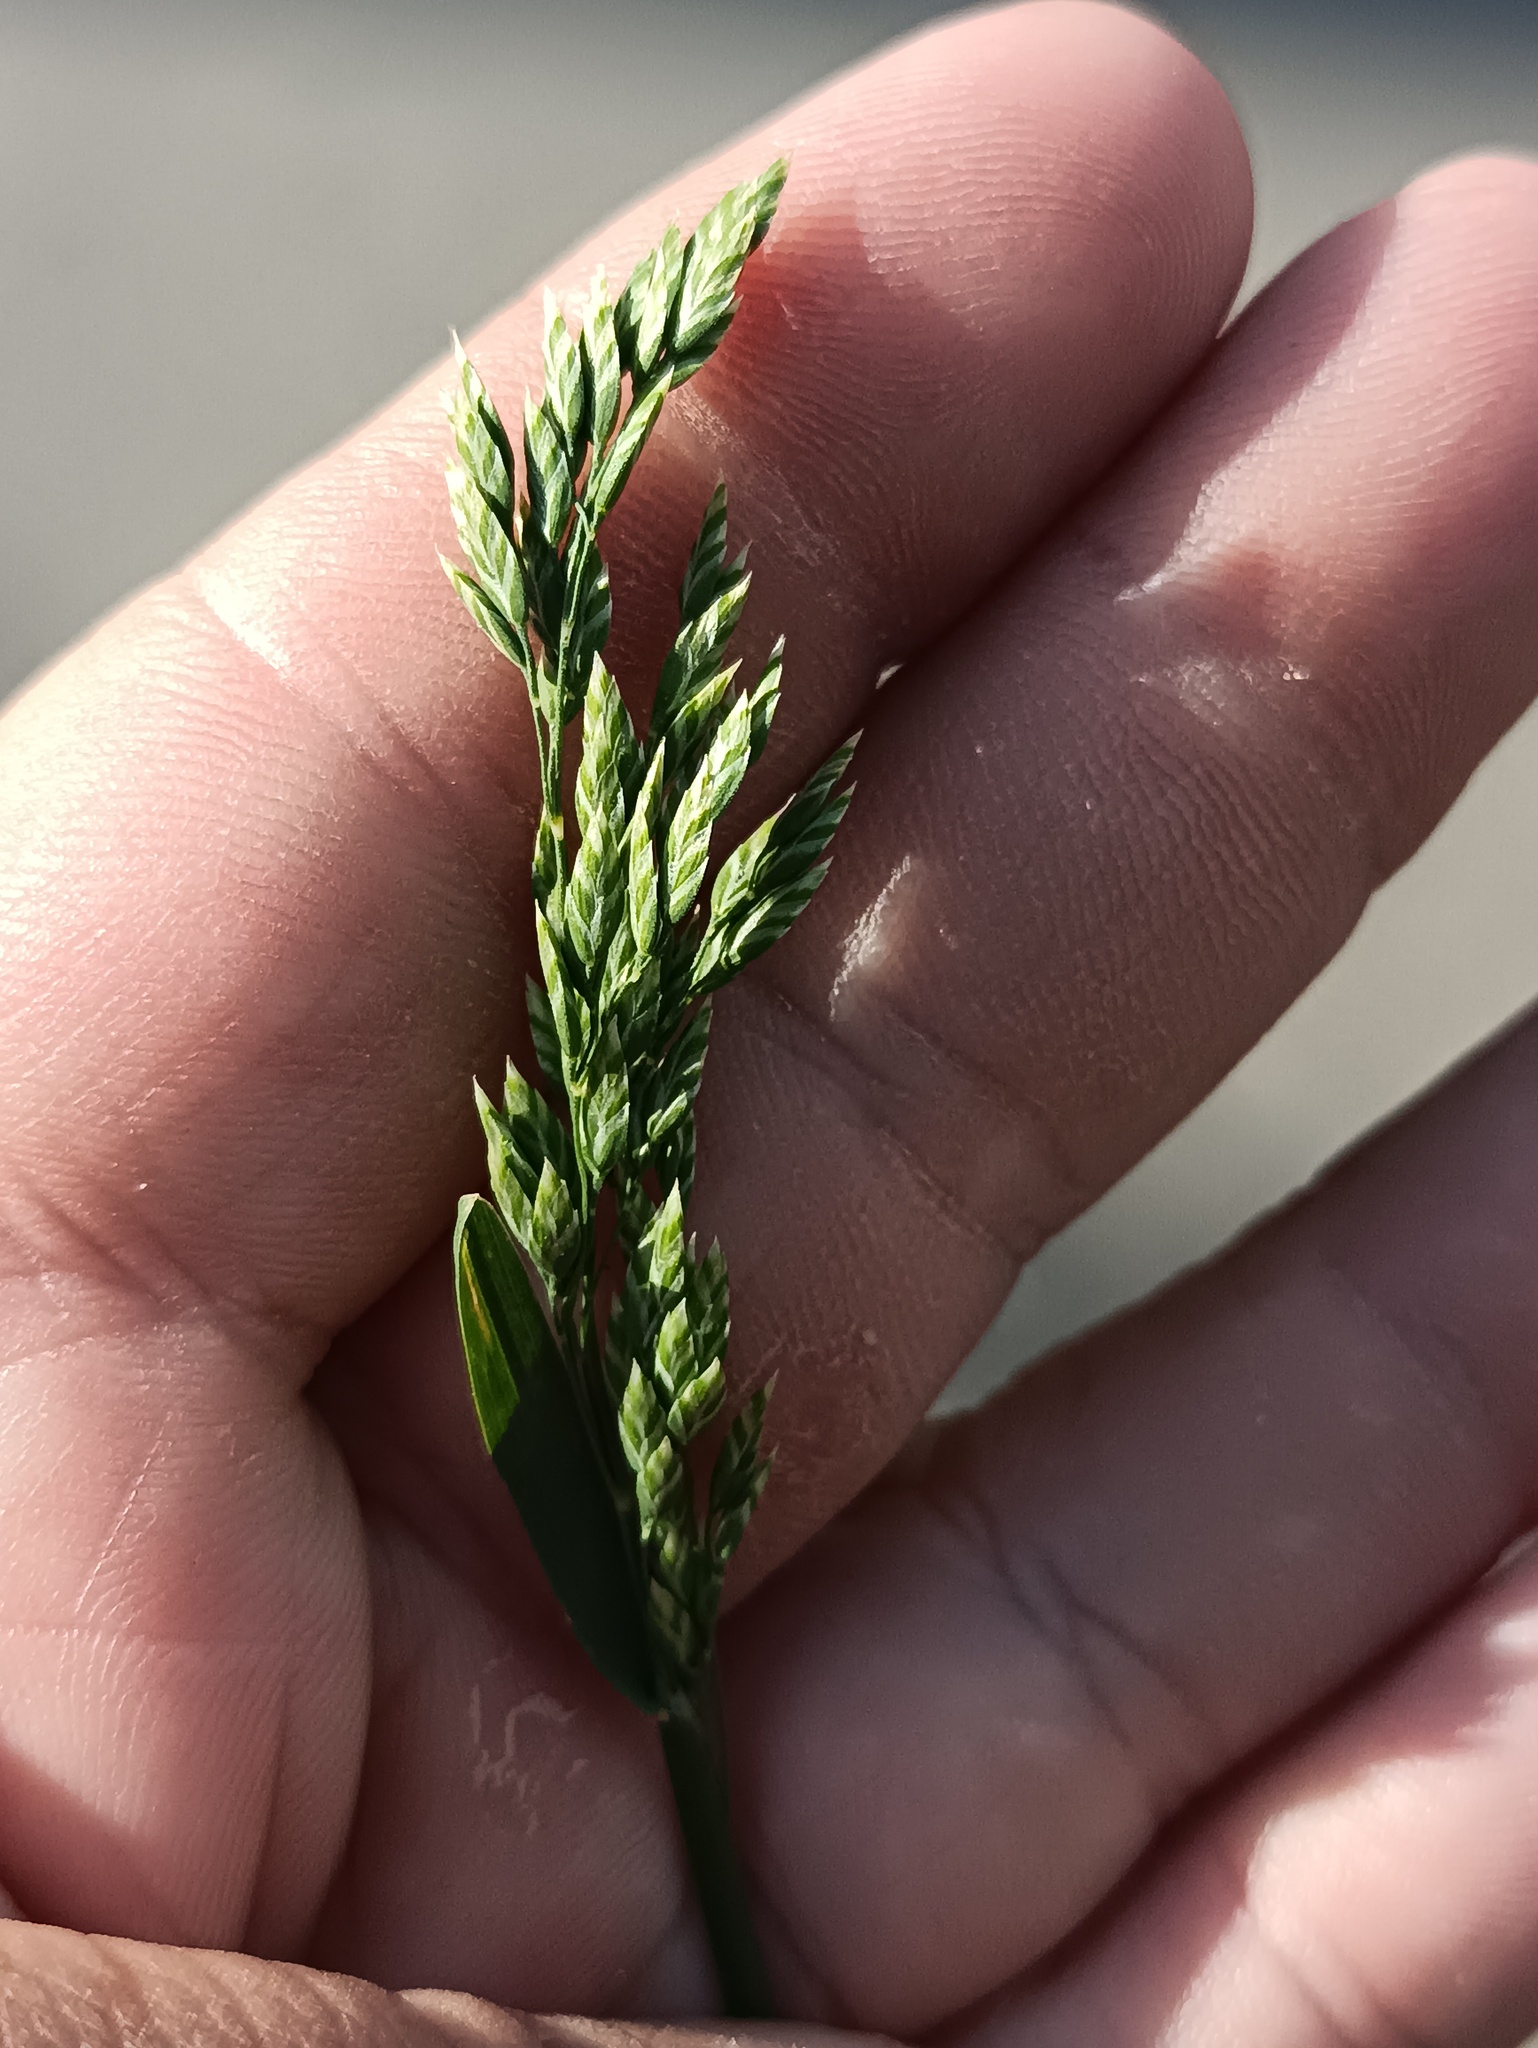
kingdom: Plantae
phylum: Tracheophyta
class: Liliopsida
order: Poales
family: Poaceae
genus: Poa
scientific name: Poa pratensis
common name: Kentucky bluegrass
